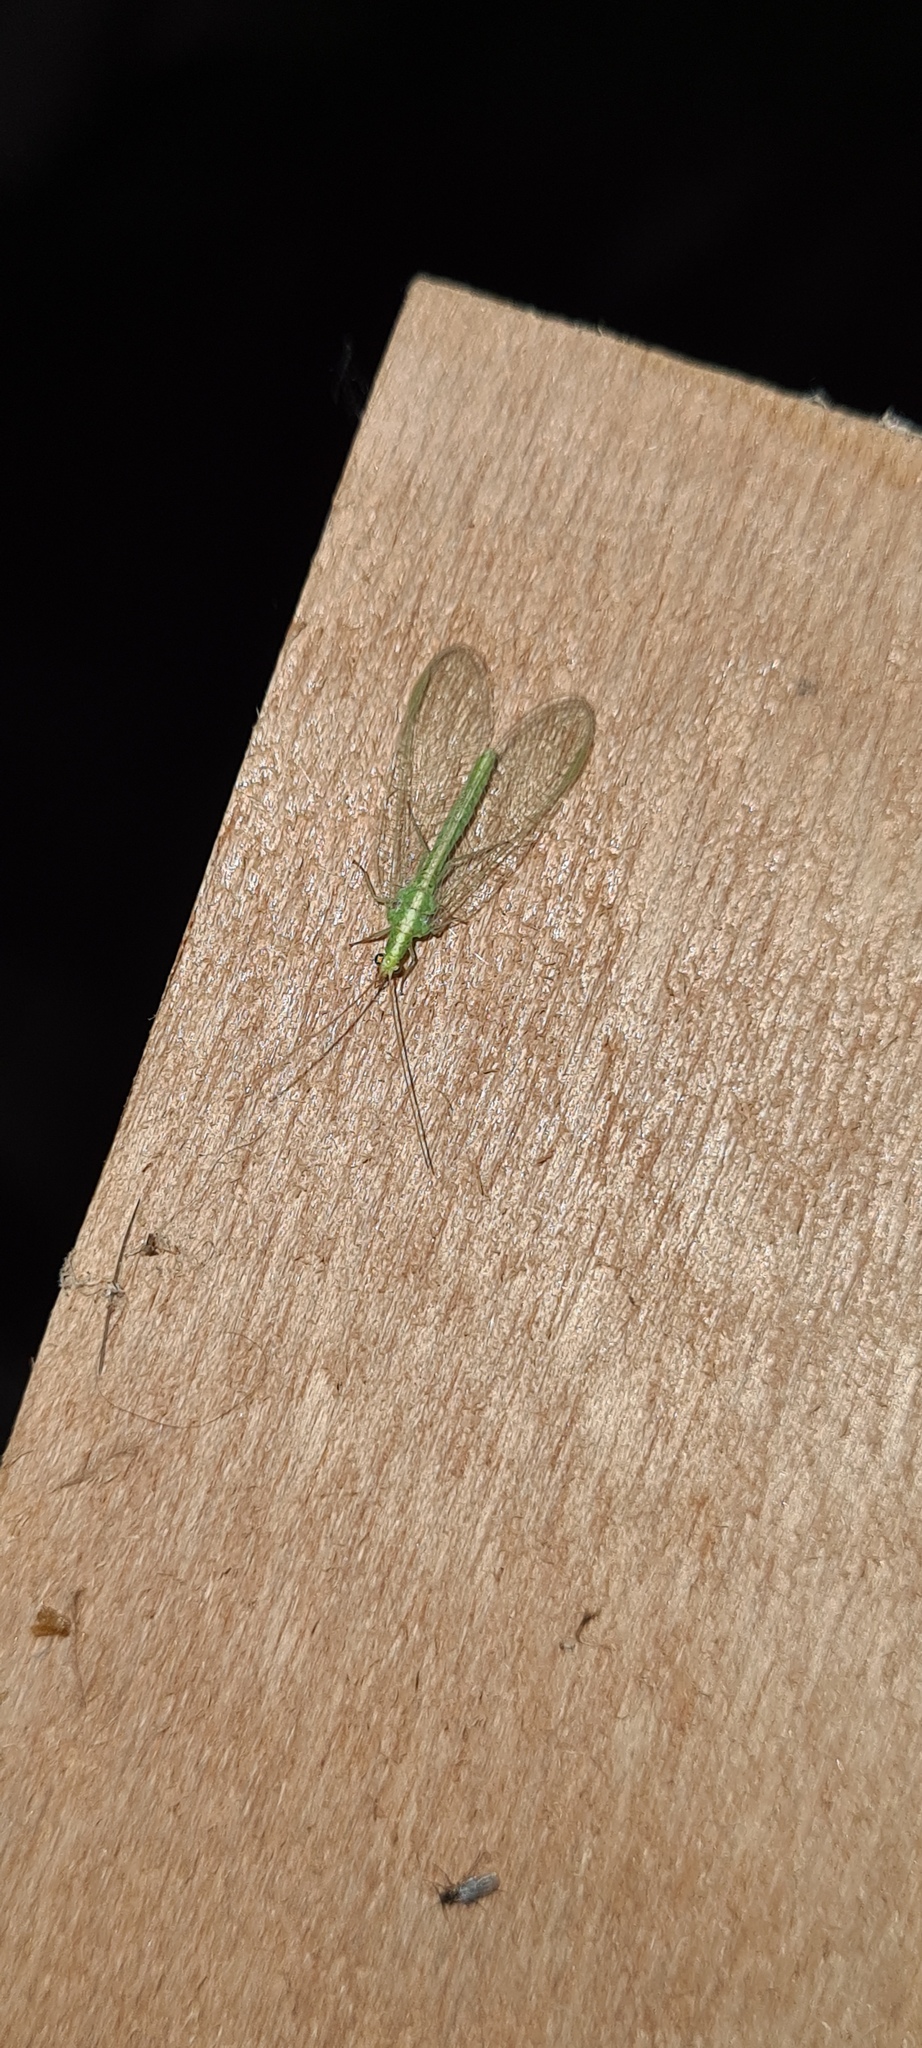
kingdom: Animalia
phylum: Arthropoda
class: Insecta
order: Neuroptera
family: Chrysopidae
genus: Chrysoperla
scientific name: Chrysoperla
